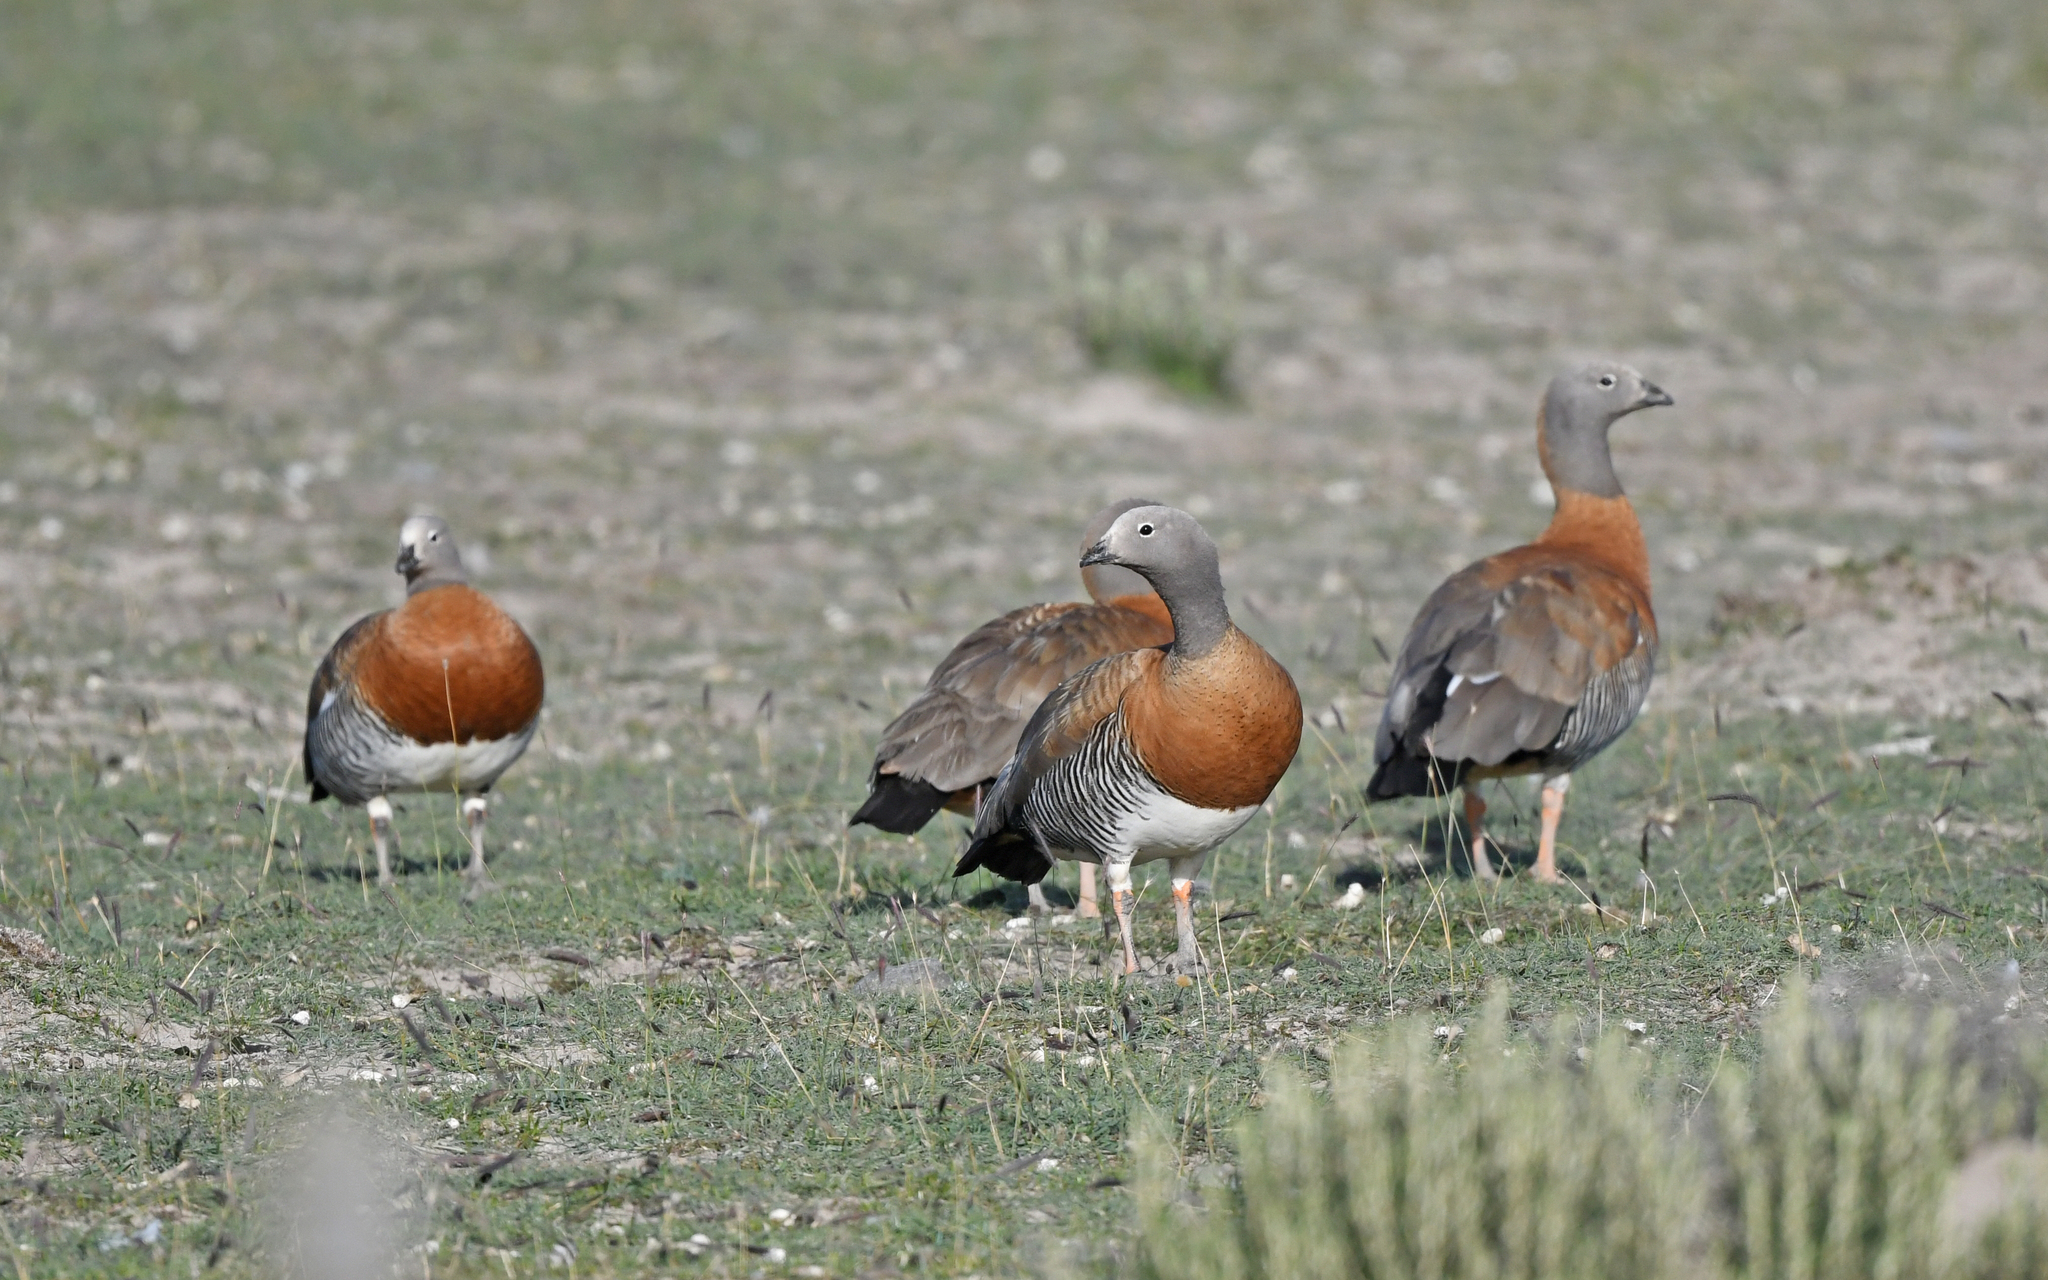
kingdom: Animalia
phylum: Chordata
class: Aves
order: Anseriformes
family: Anatidae
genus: Chloephaga
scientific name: Chloephaga poliocephala
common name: Ashy-headed goose
